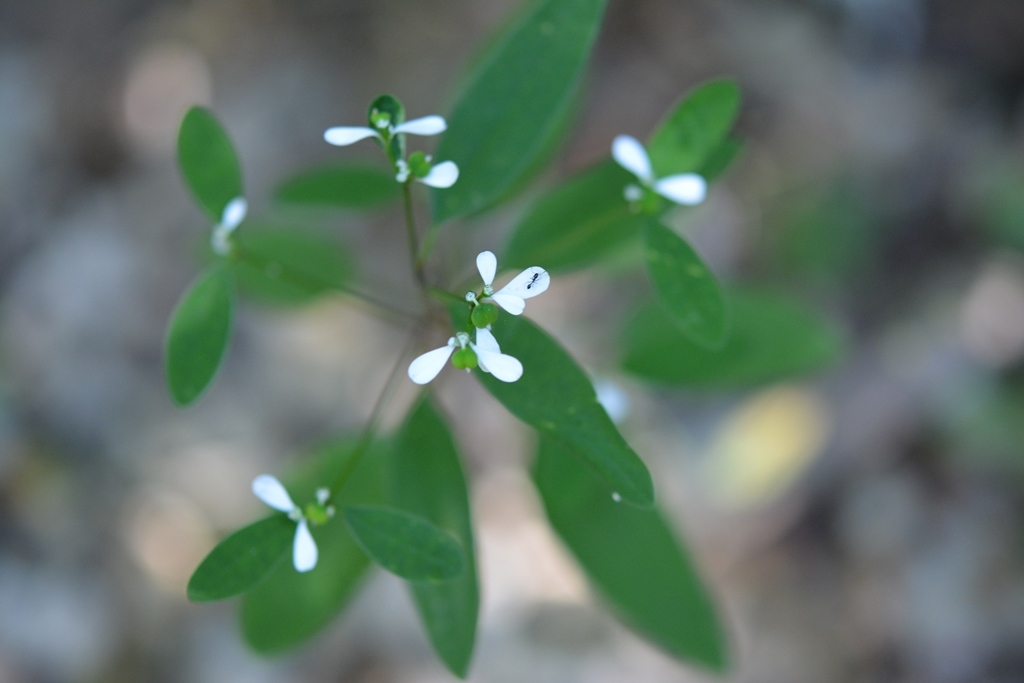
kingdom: Plantae
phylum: Tracheophyta
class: Magnoliopsida
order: Malpighiales
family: Euphorbiaceae
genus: Euphorbia
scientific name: Euphorbia ariensis
